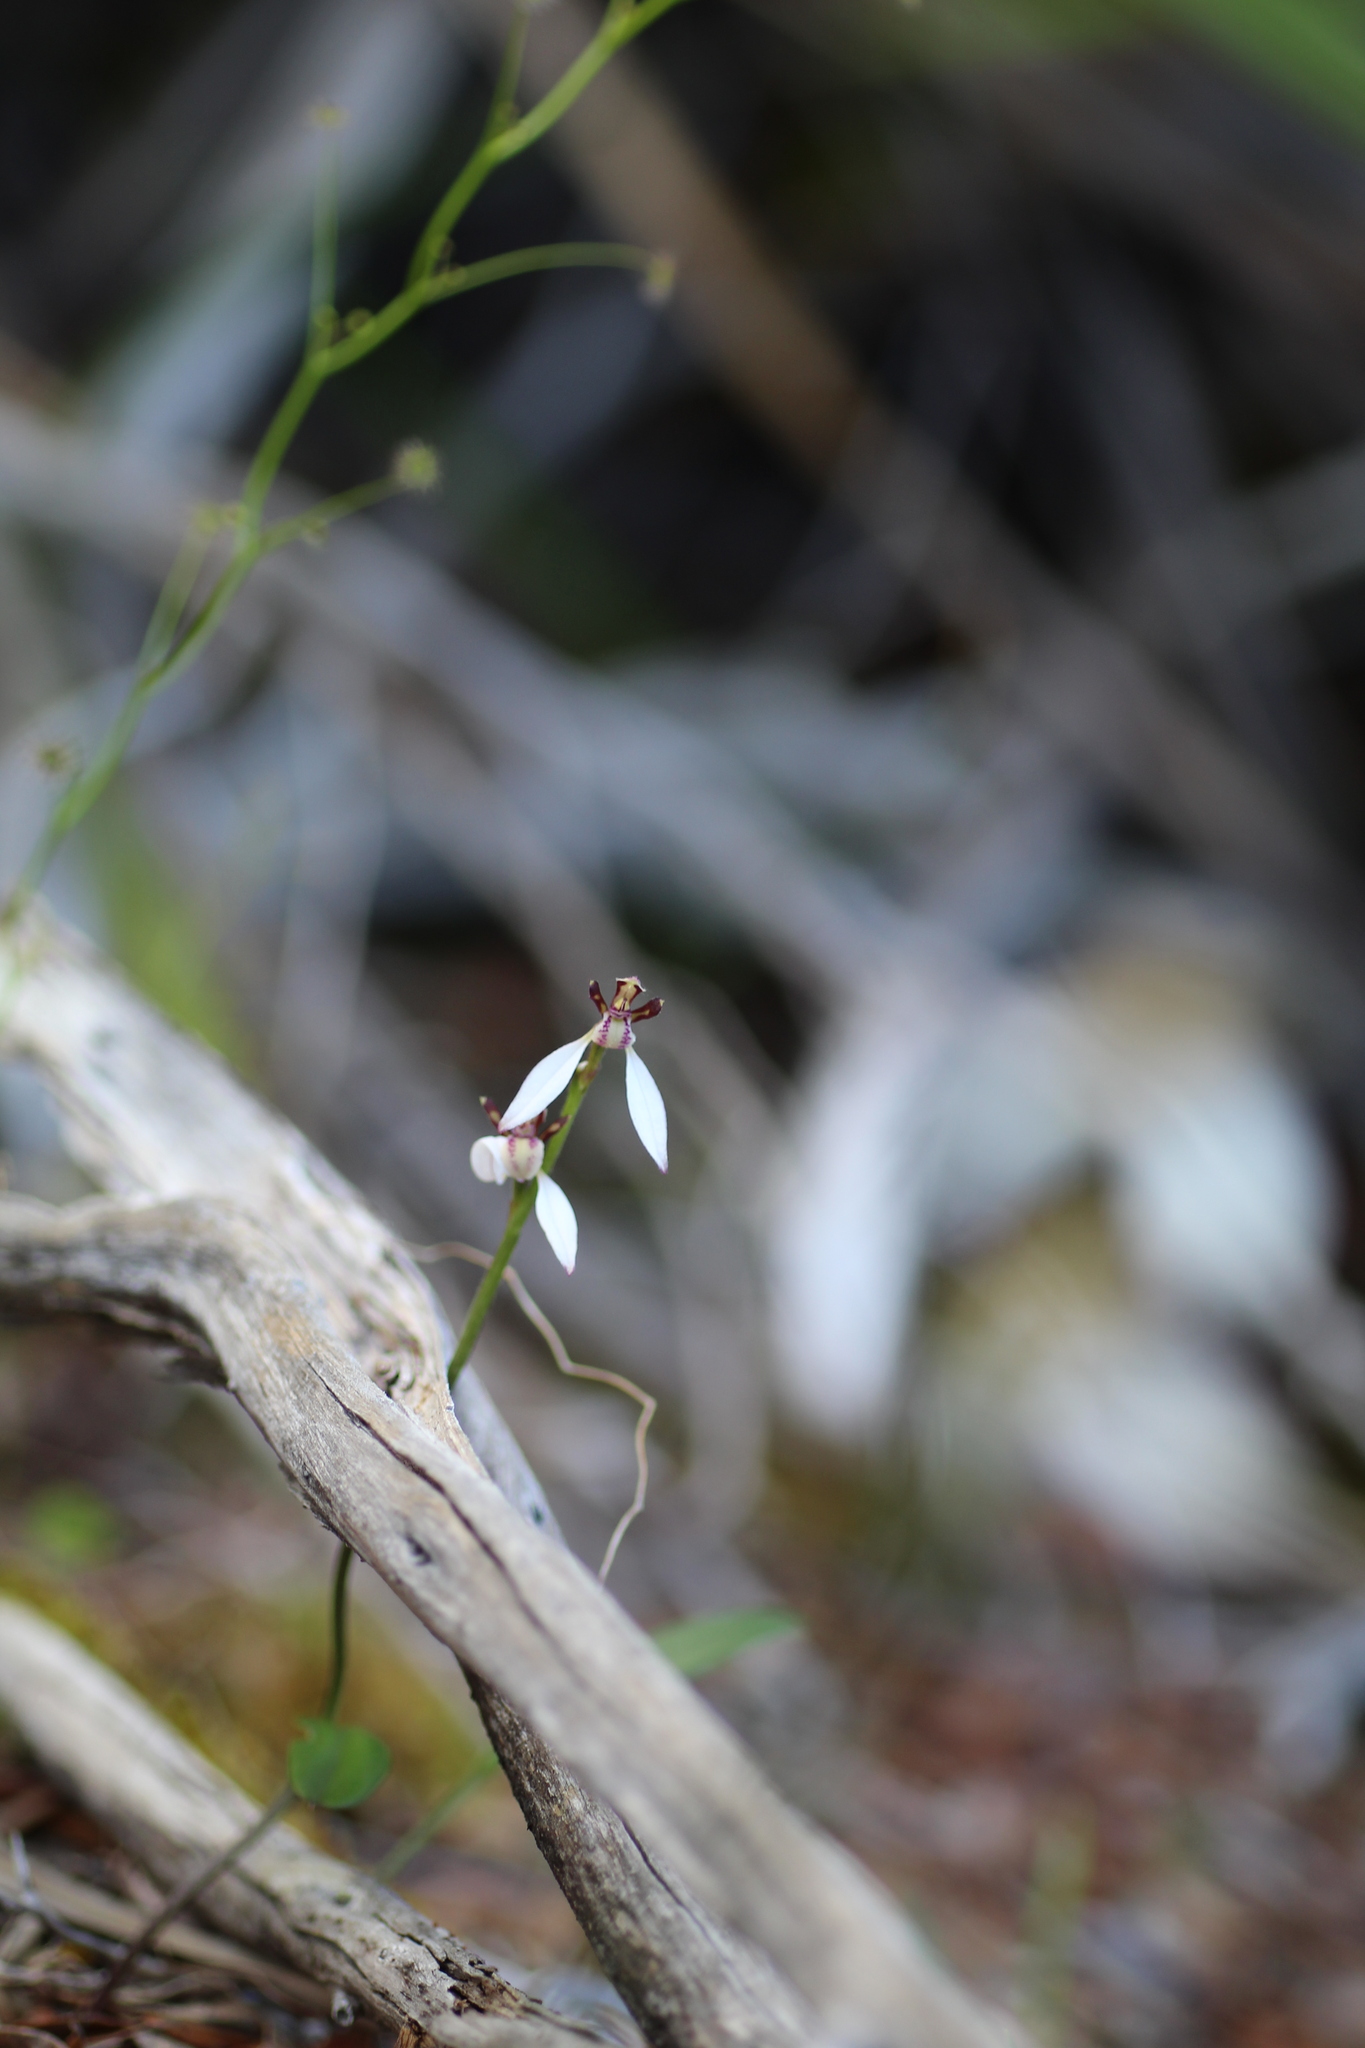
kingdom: Plantae
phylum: Tracheophyta
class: Liliopsida
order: Asparagales
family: Orchidaceae
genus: Eriochilus
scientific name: Eriochilus pulchellus
